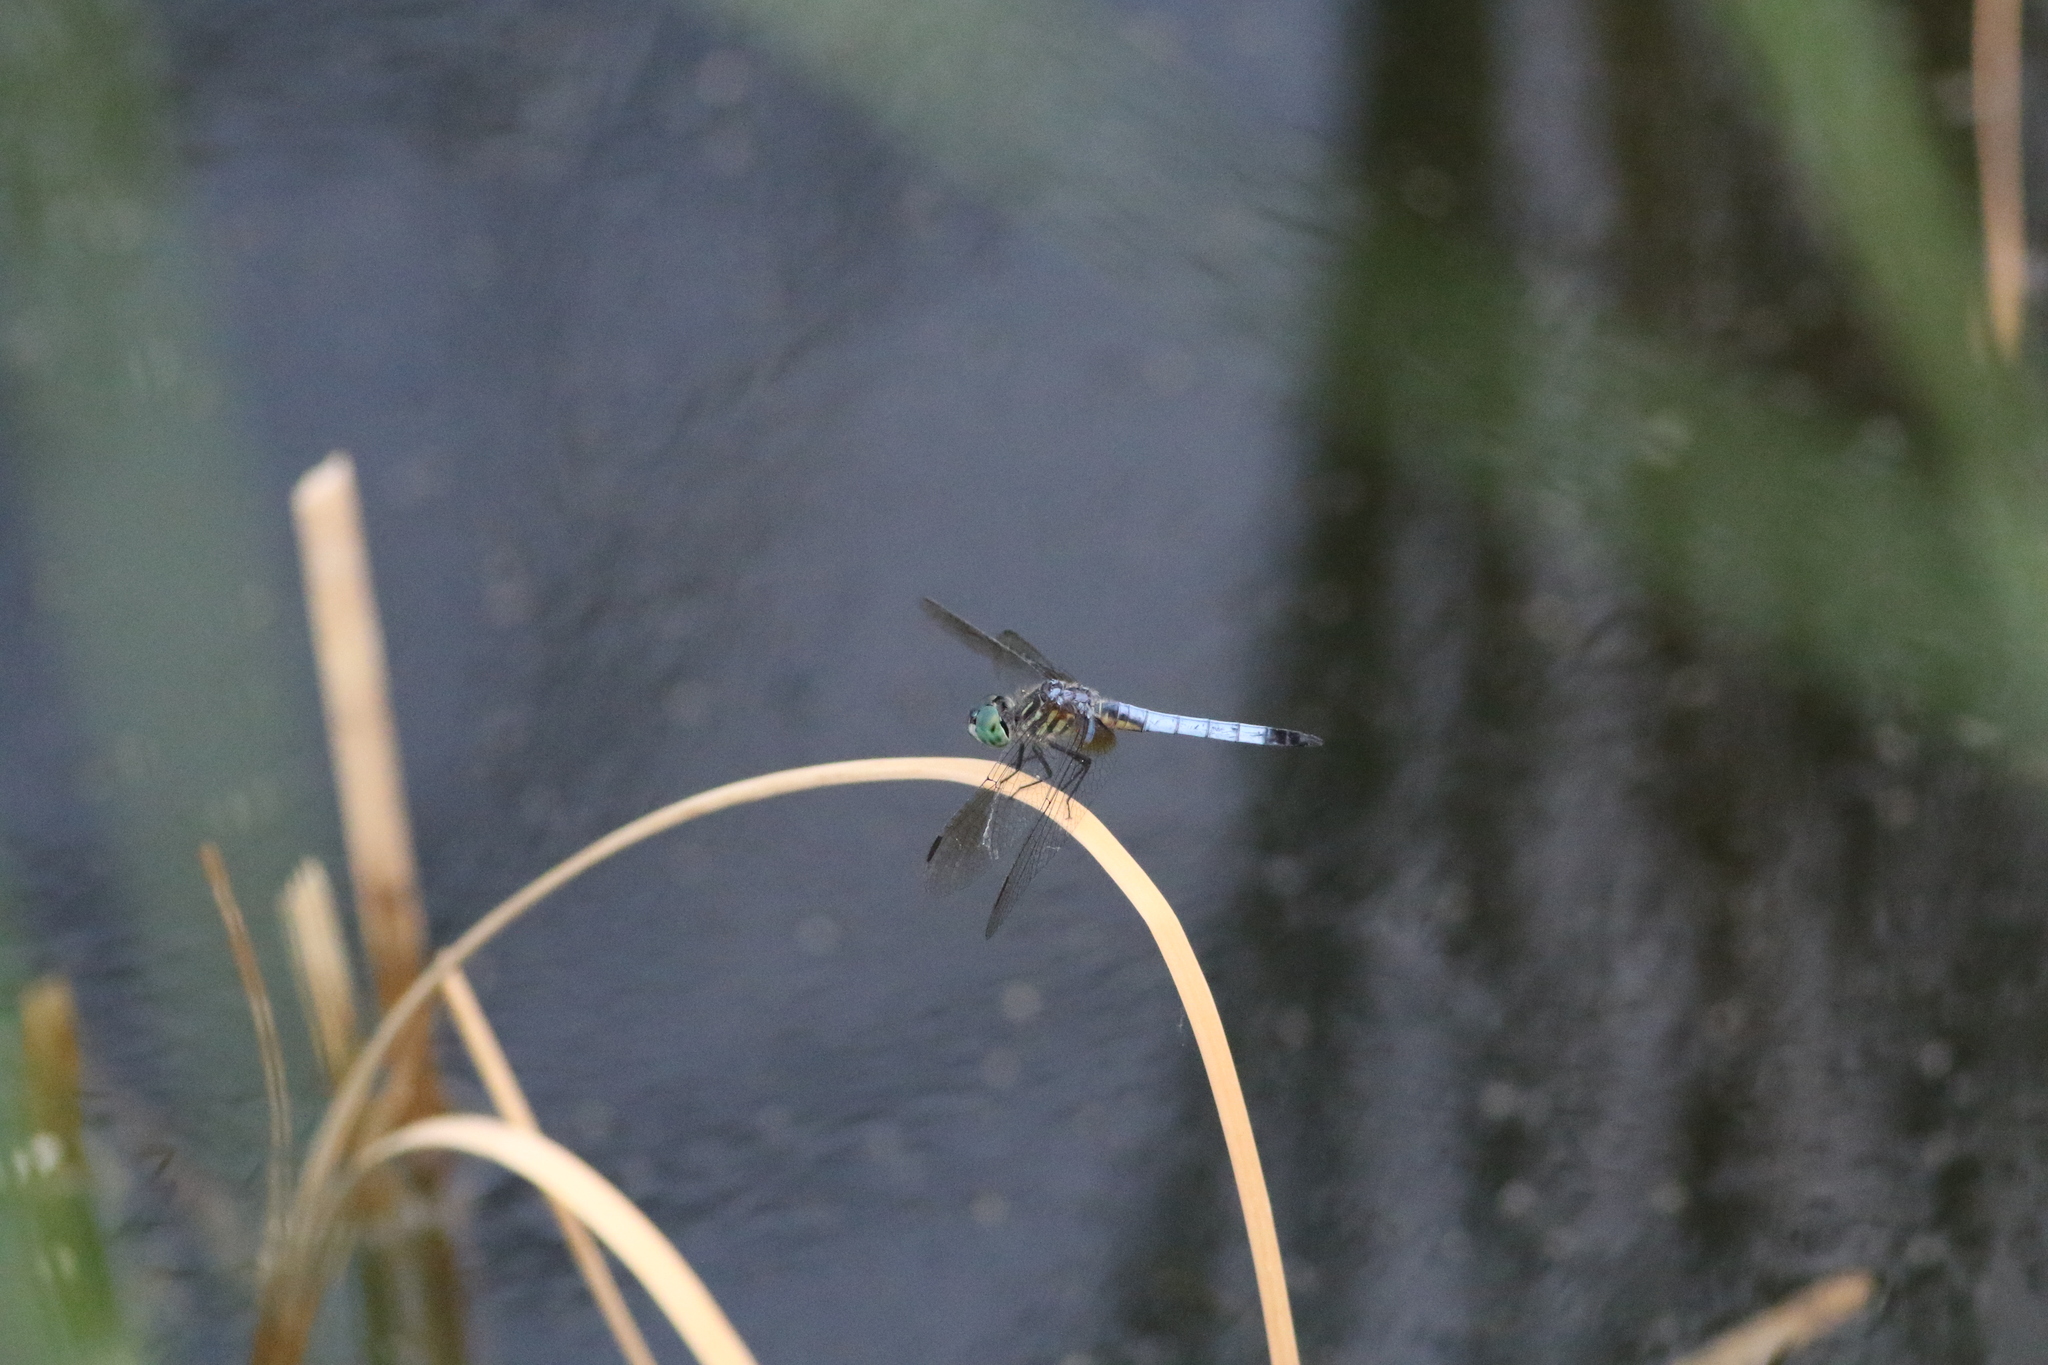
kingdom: Animalia
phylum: Arthropoda
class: Insecta
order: Odonata
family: Libellulidae
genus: Pachydiplax
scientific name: Pachydiplax longipennis
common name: Blue dasher
